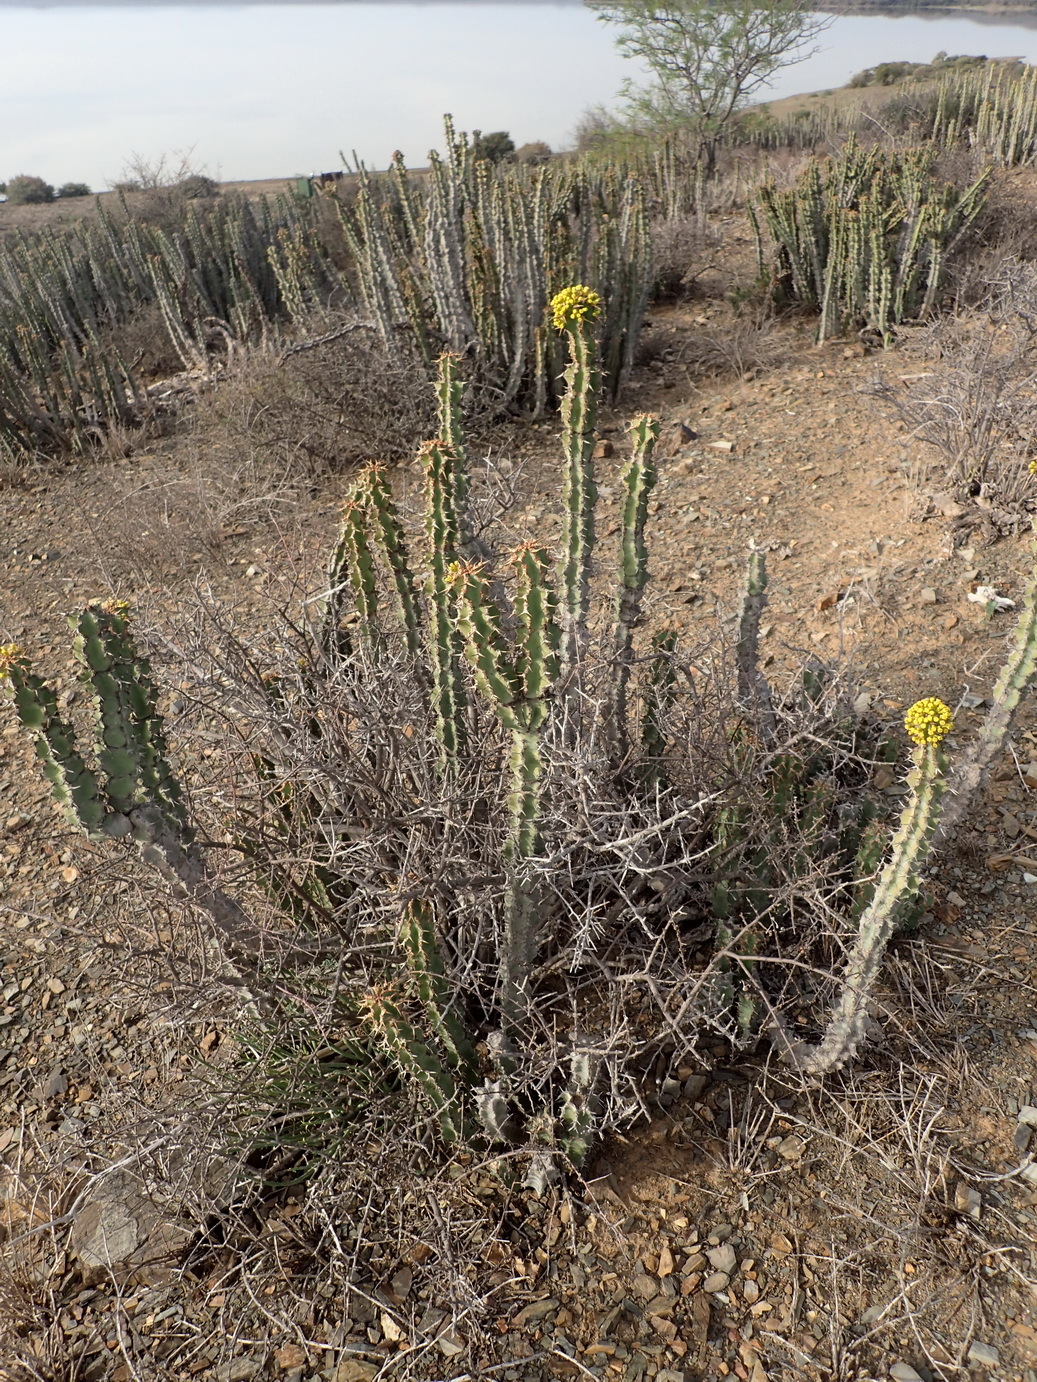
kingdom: Plantae
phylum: Tracheophyta
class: Magnoliopsida
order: Malpighiales
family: Euphorbiaceae
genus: Euphorbia
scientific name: Euphorbia radyeri
